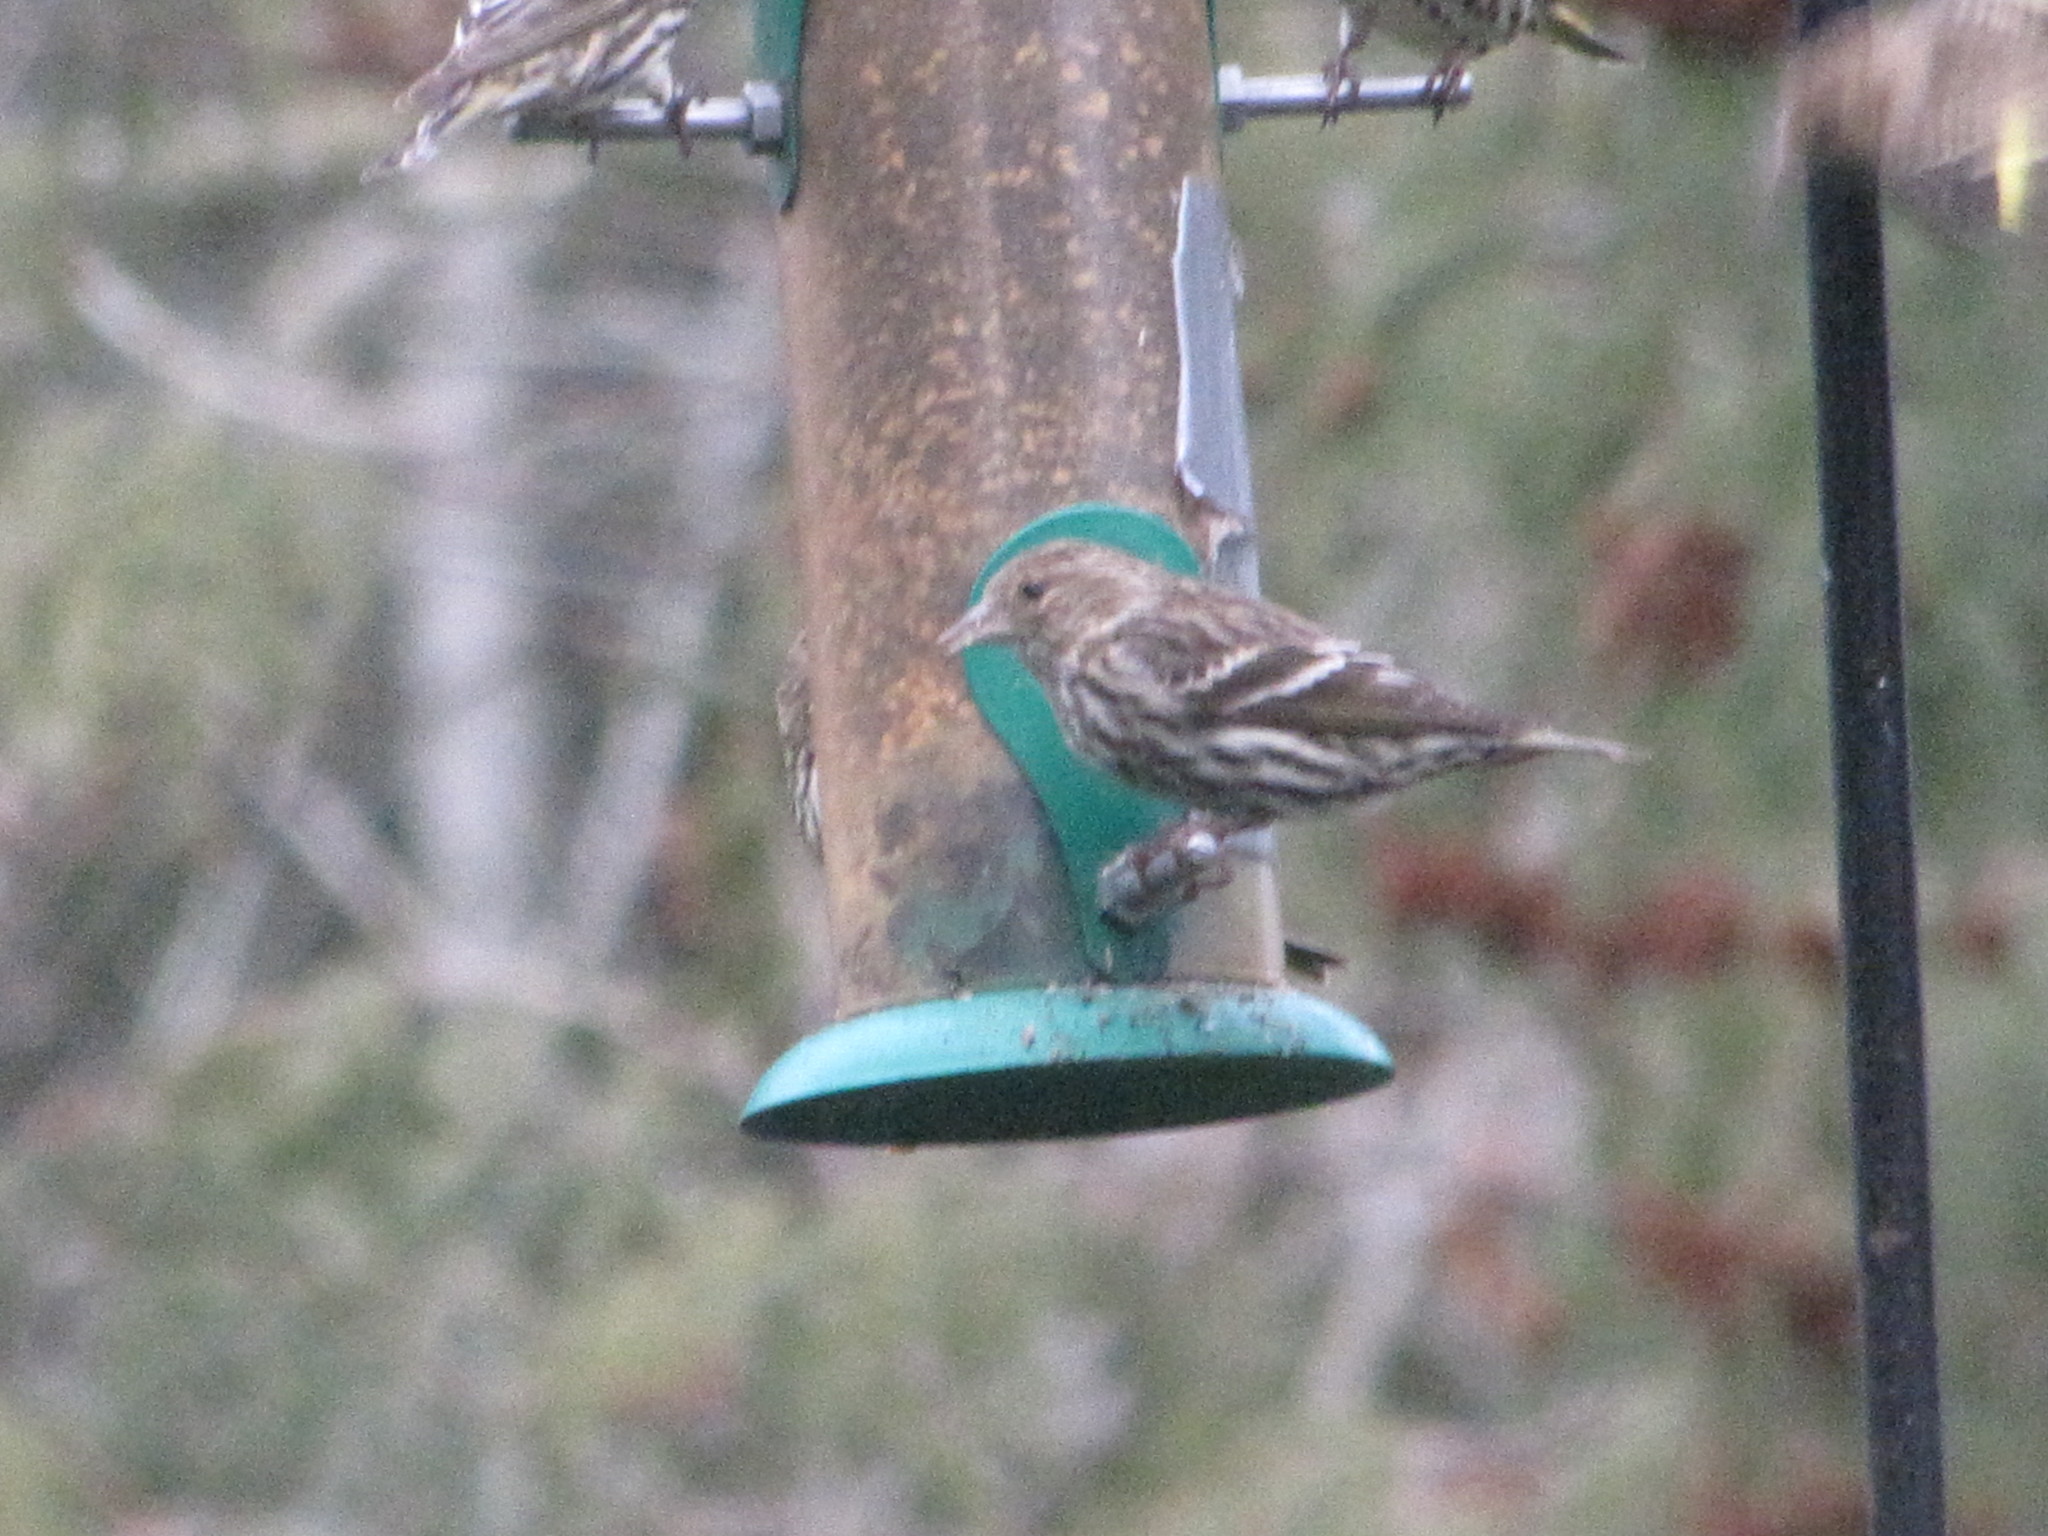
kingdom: Animalia
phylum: Chordata
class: Aves
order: Passeriformes
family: Fringillidae
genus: Spinus
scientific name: Spinus pinus
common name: Pine siskin
